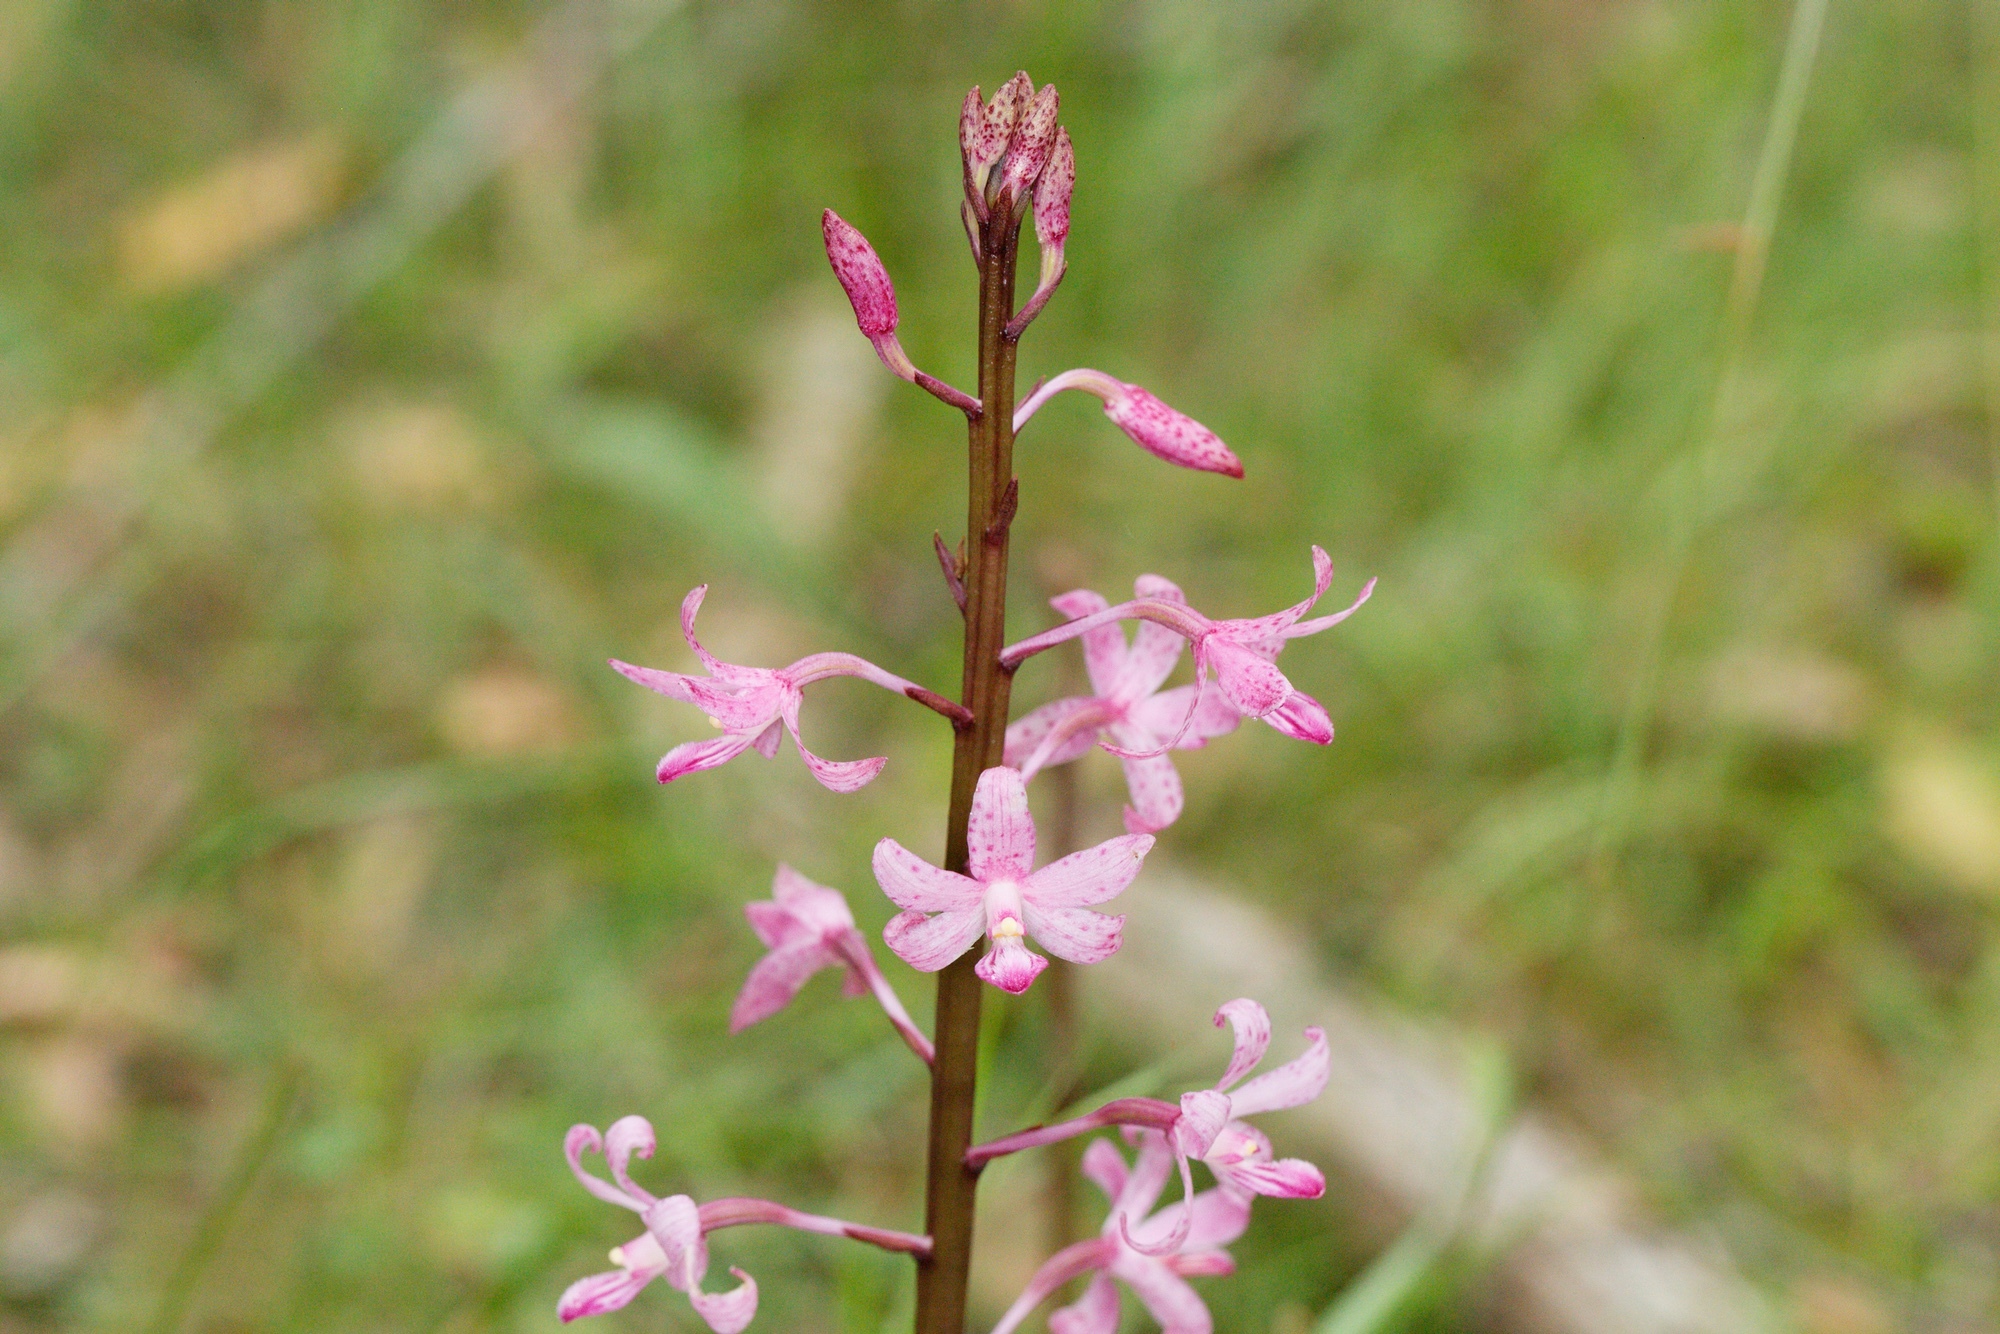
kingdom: Plantae
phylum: Tracheophyta
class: Liliopsida
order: Asparagales
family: Orchidaceae
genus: Dipodium
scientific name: Dipodium roseum
